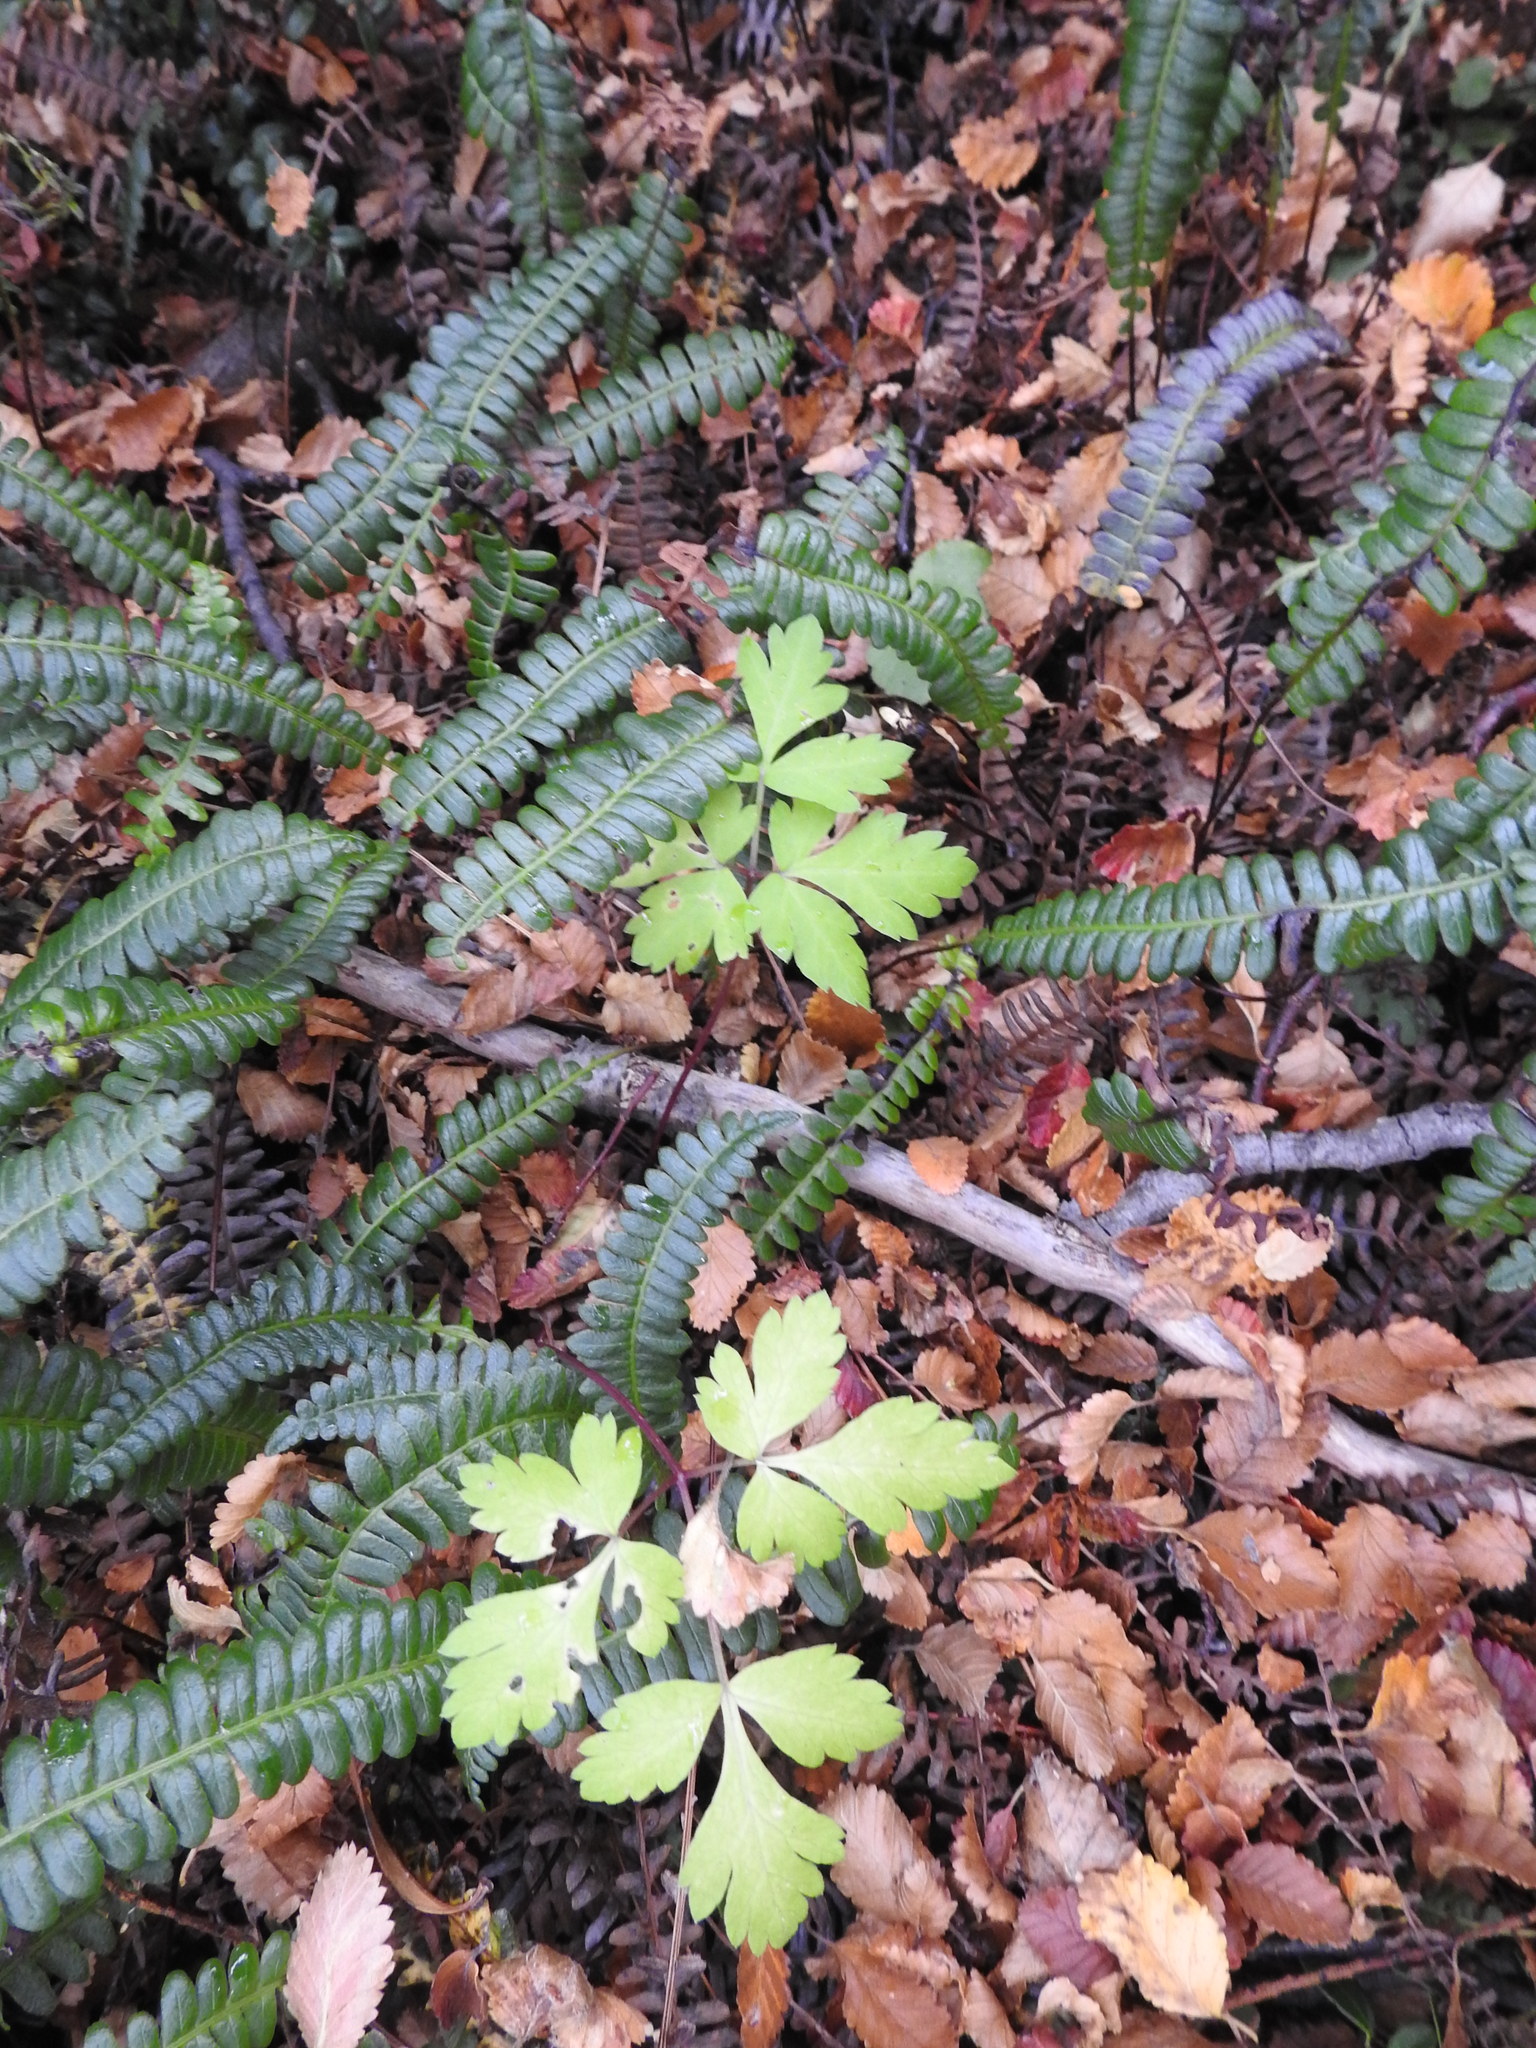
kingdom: Plantae
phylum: Tracheophyta
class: Polypodiopsida
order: Polypodiales
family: Blechnaceae
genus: Austroblechnum
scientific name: Austroblechnum penna-marina
